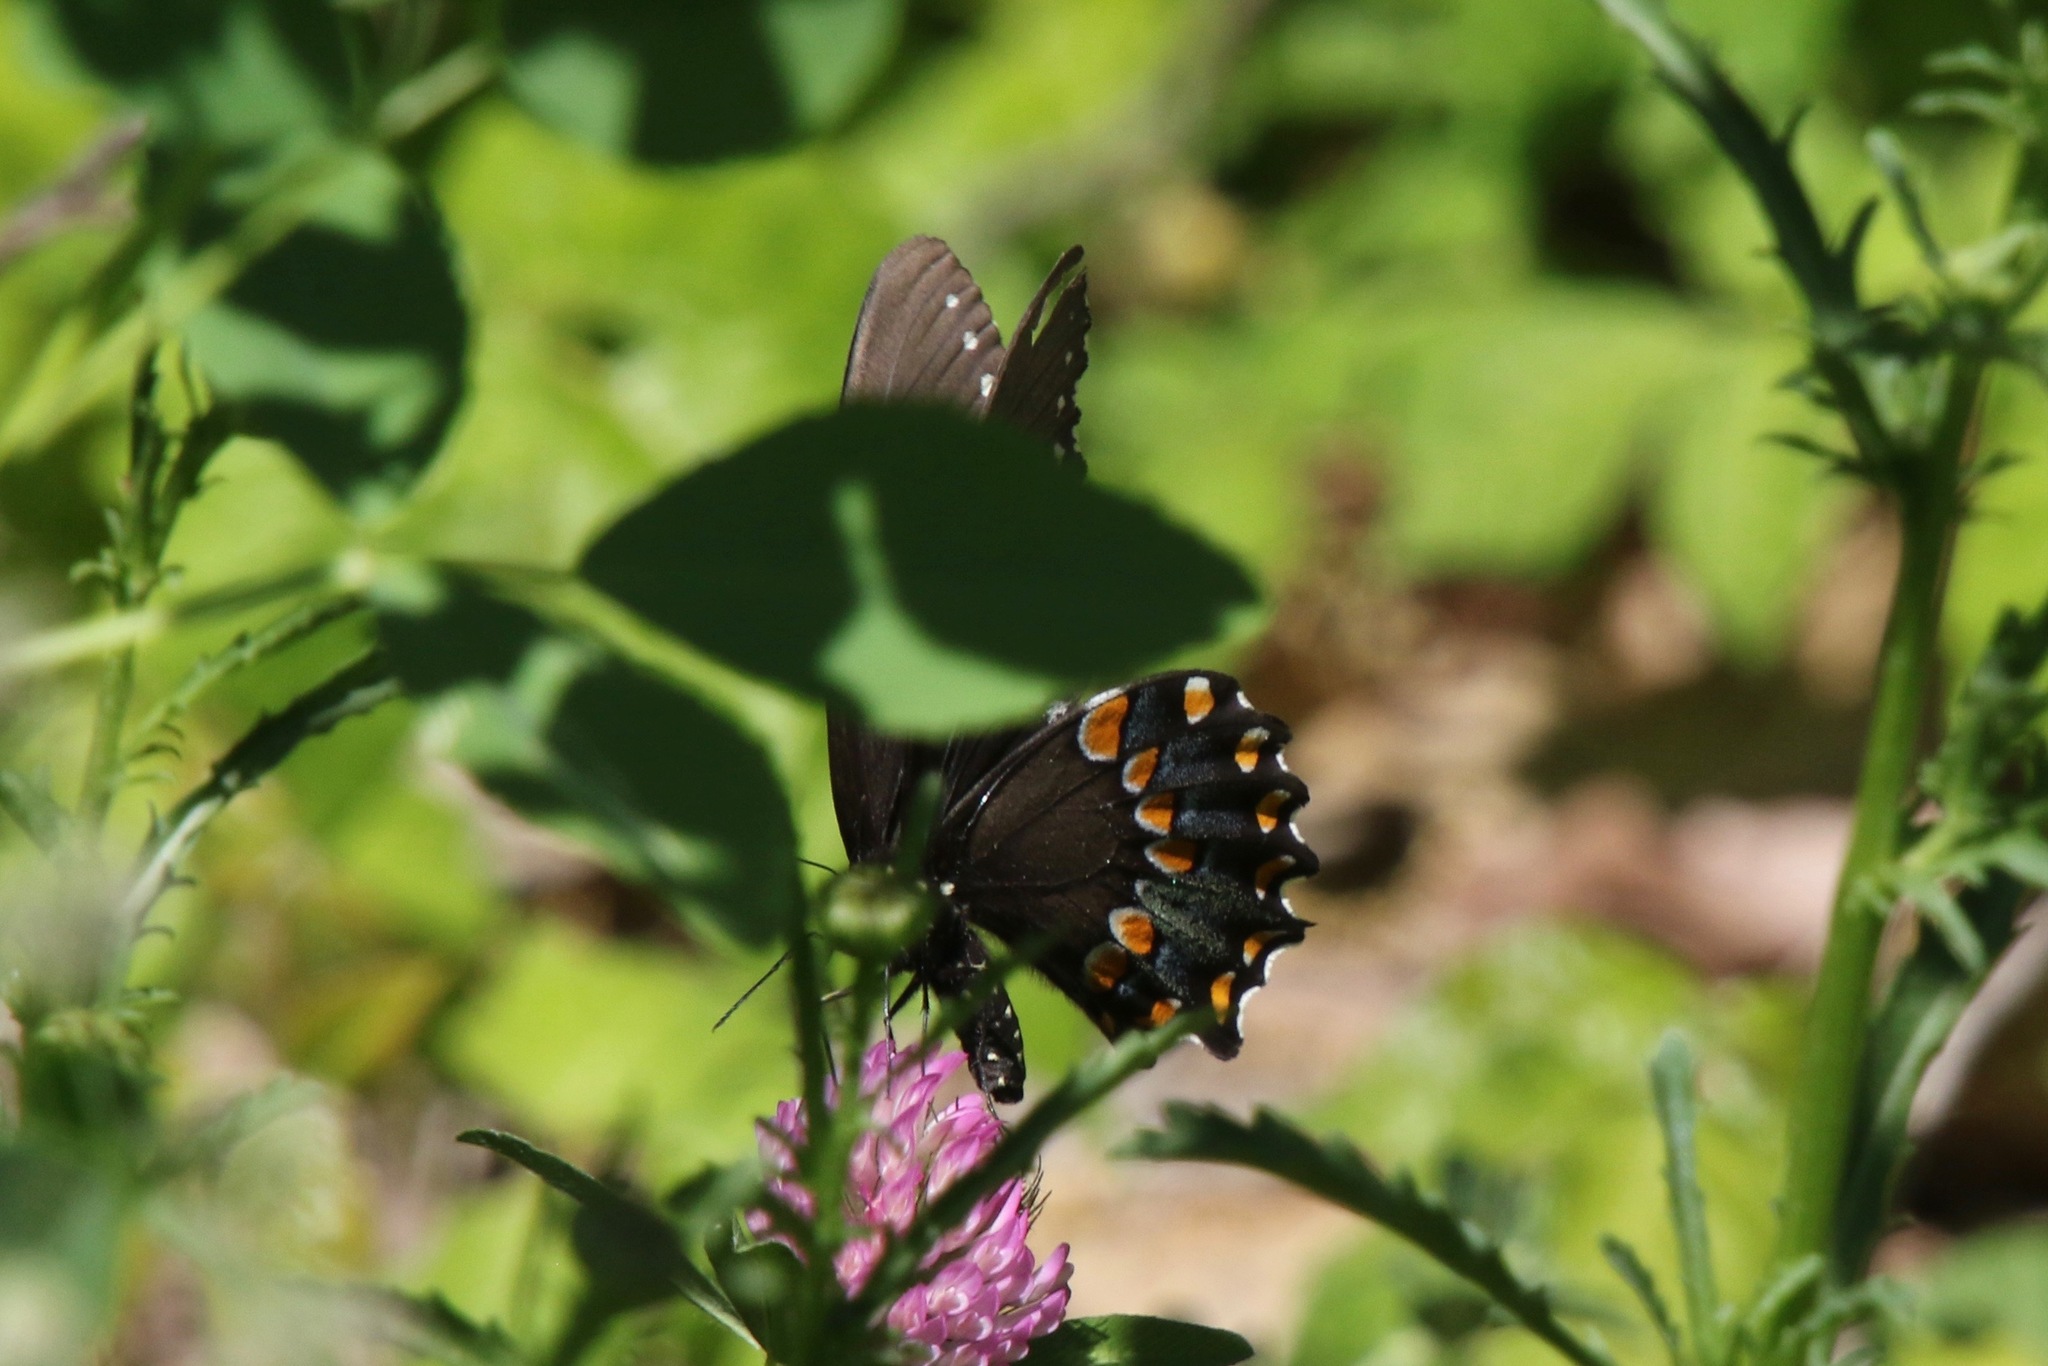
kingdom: Animalia
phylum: Arthropoda
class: Insecta
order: Lepidoptera
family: Papilionidae
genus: Papilio
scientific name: Papilio troilus
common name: Spicebush swallowtail
